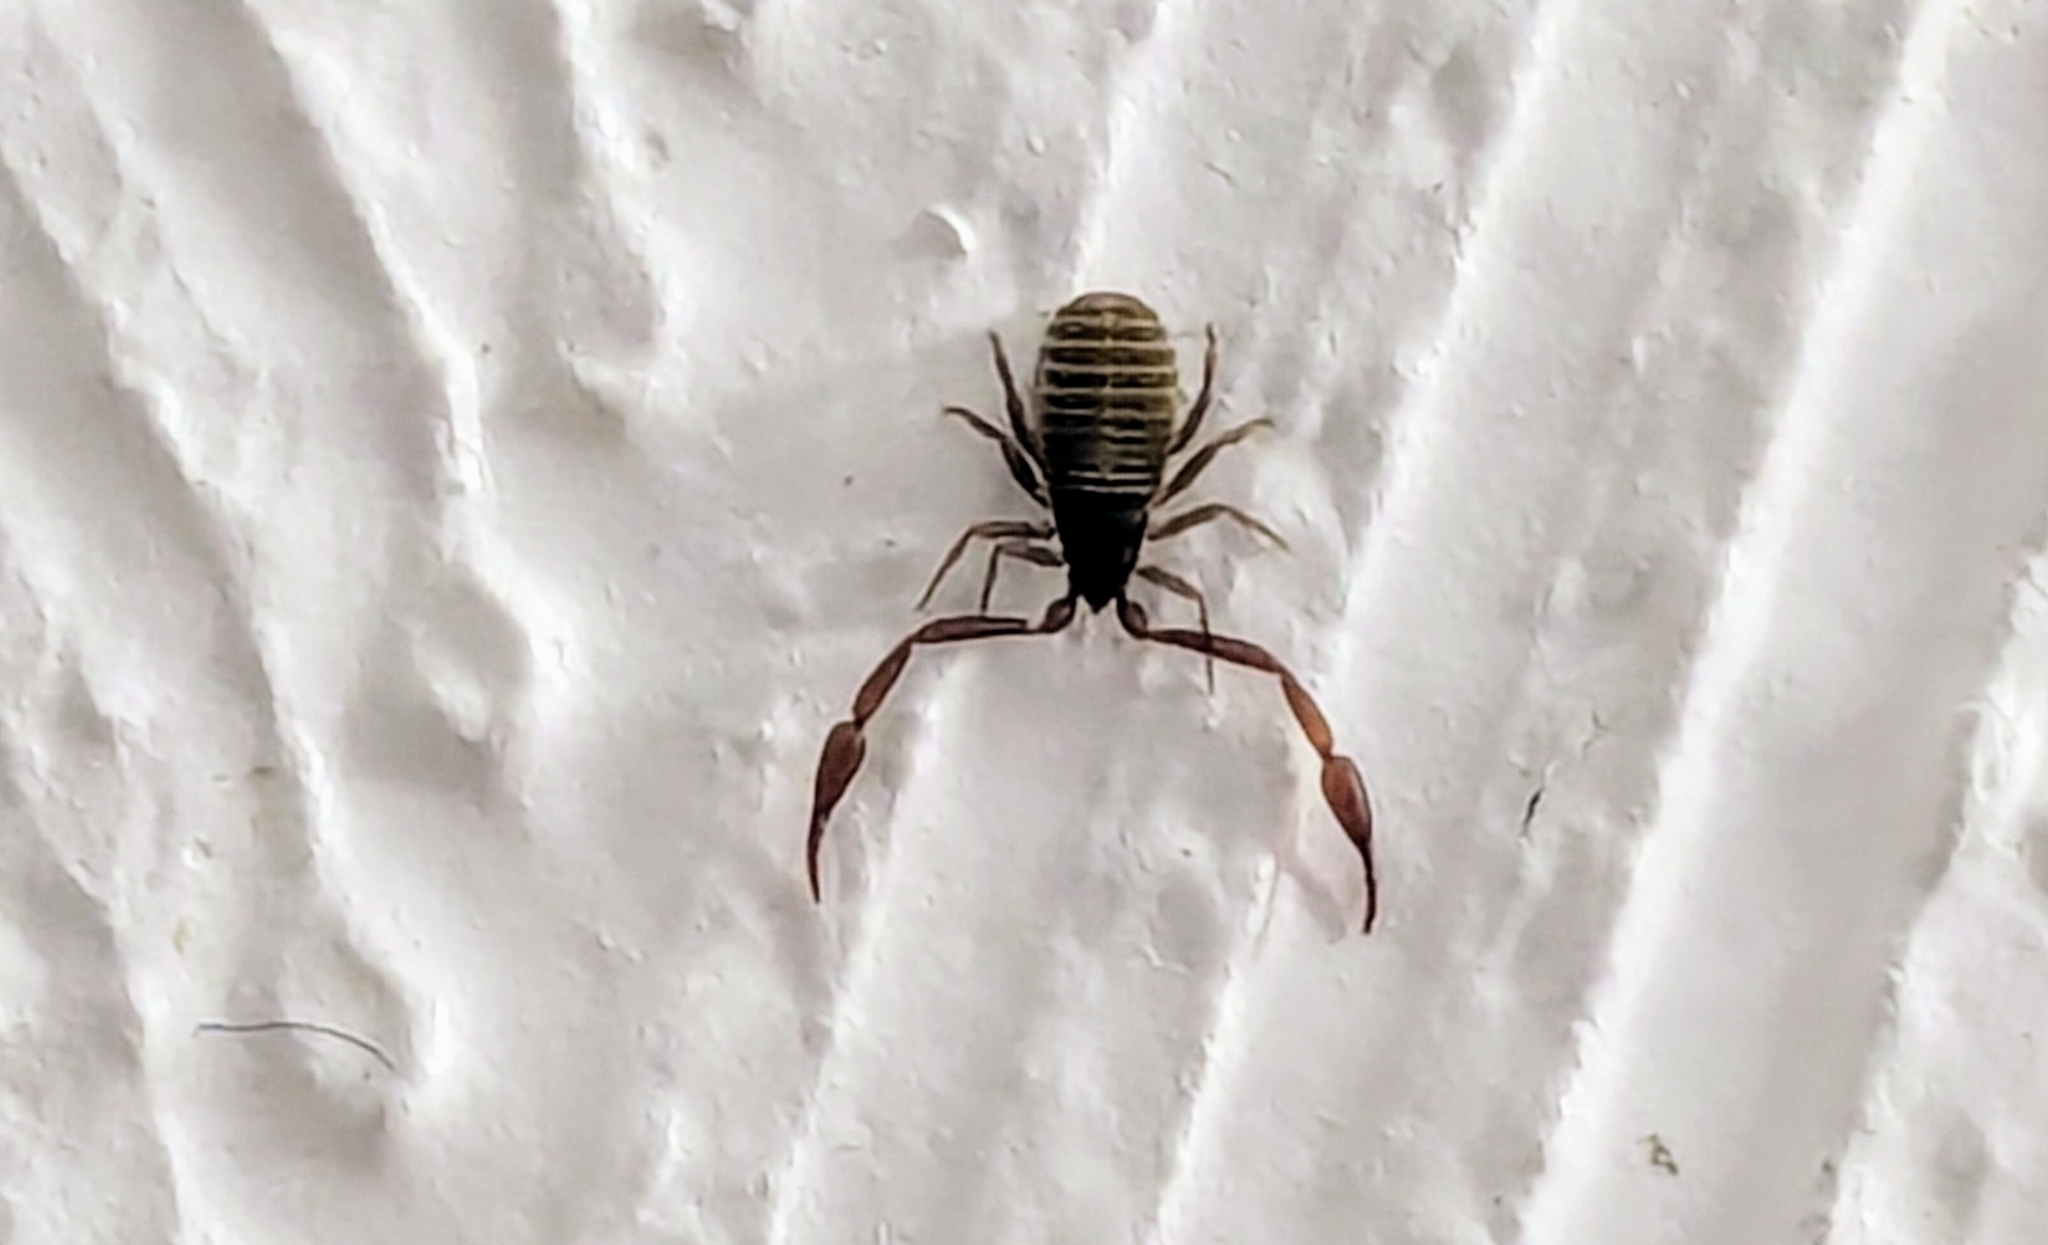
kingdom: Animalia
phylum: Arthropoda
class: Arachnida
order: Pseudoscorpiones
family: Cheliferidae
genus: Chelifer
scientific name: Chelifer cancroides
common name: House false-scorpion
